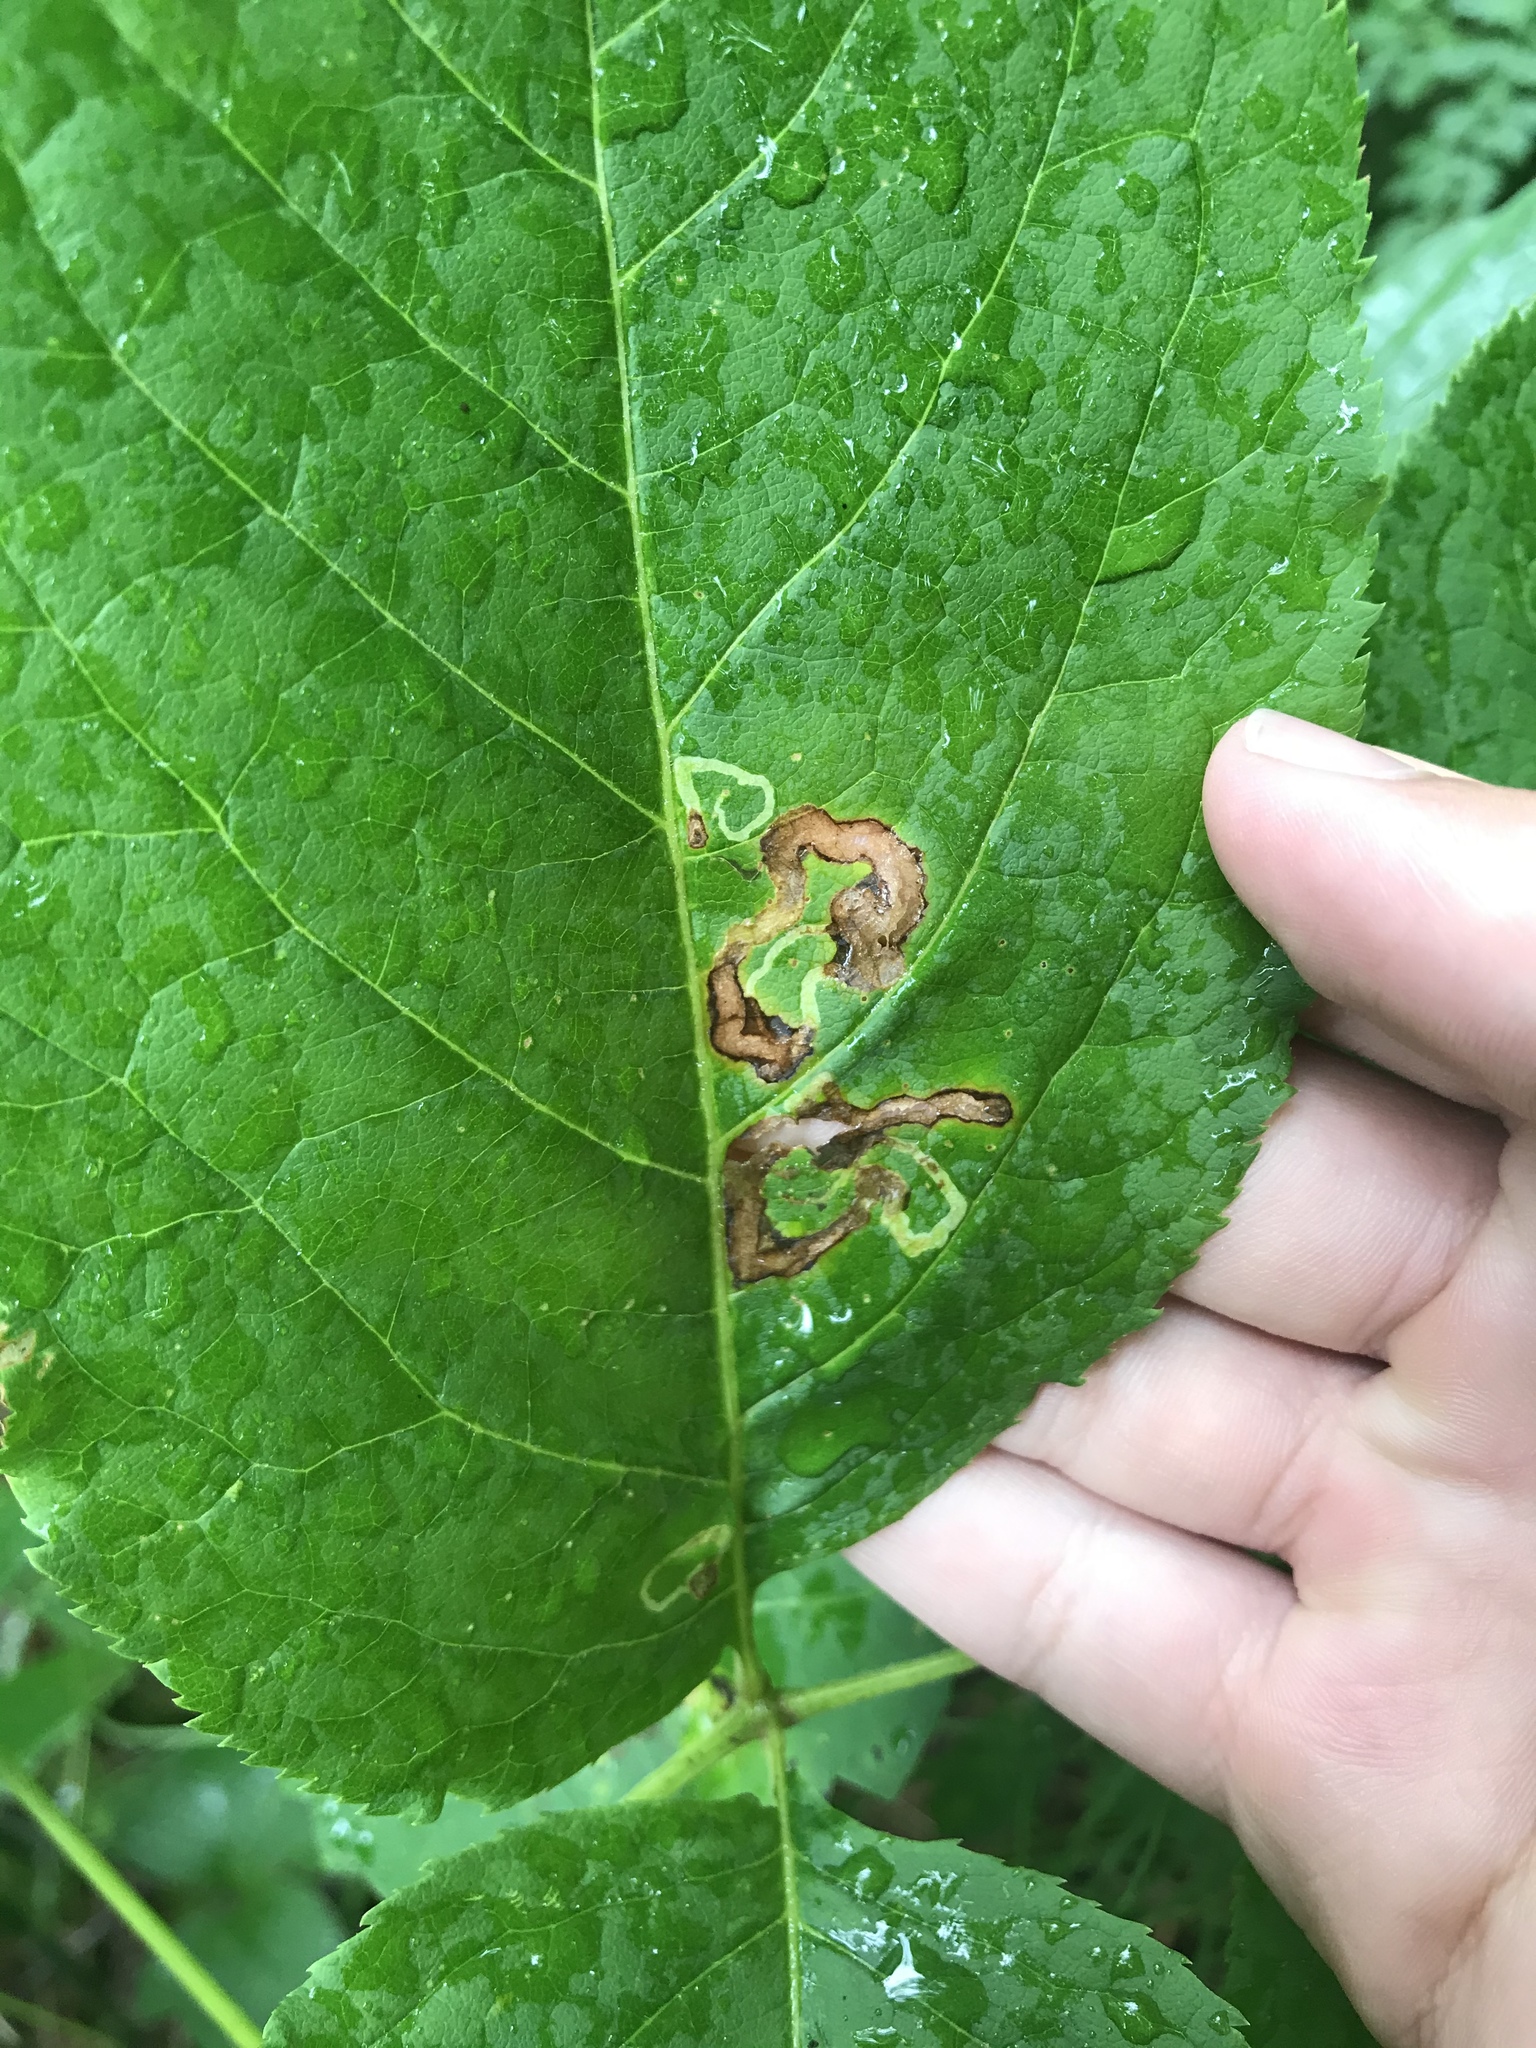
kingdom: Animalia
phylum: Arthropoda
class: Insecta
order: Diptera
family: Agromyzidae
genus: Phytomyza
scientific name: Phytomyza aralivora
